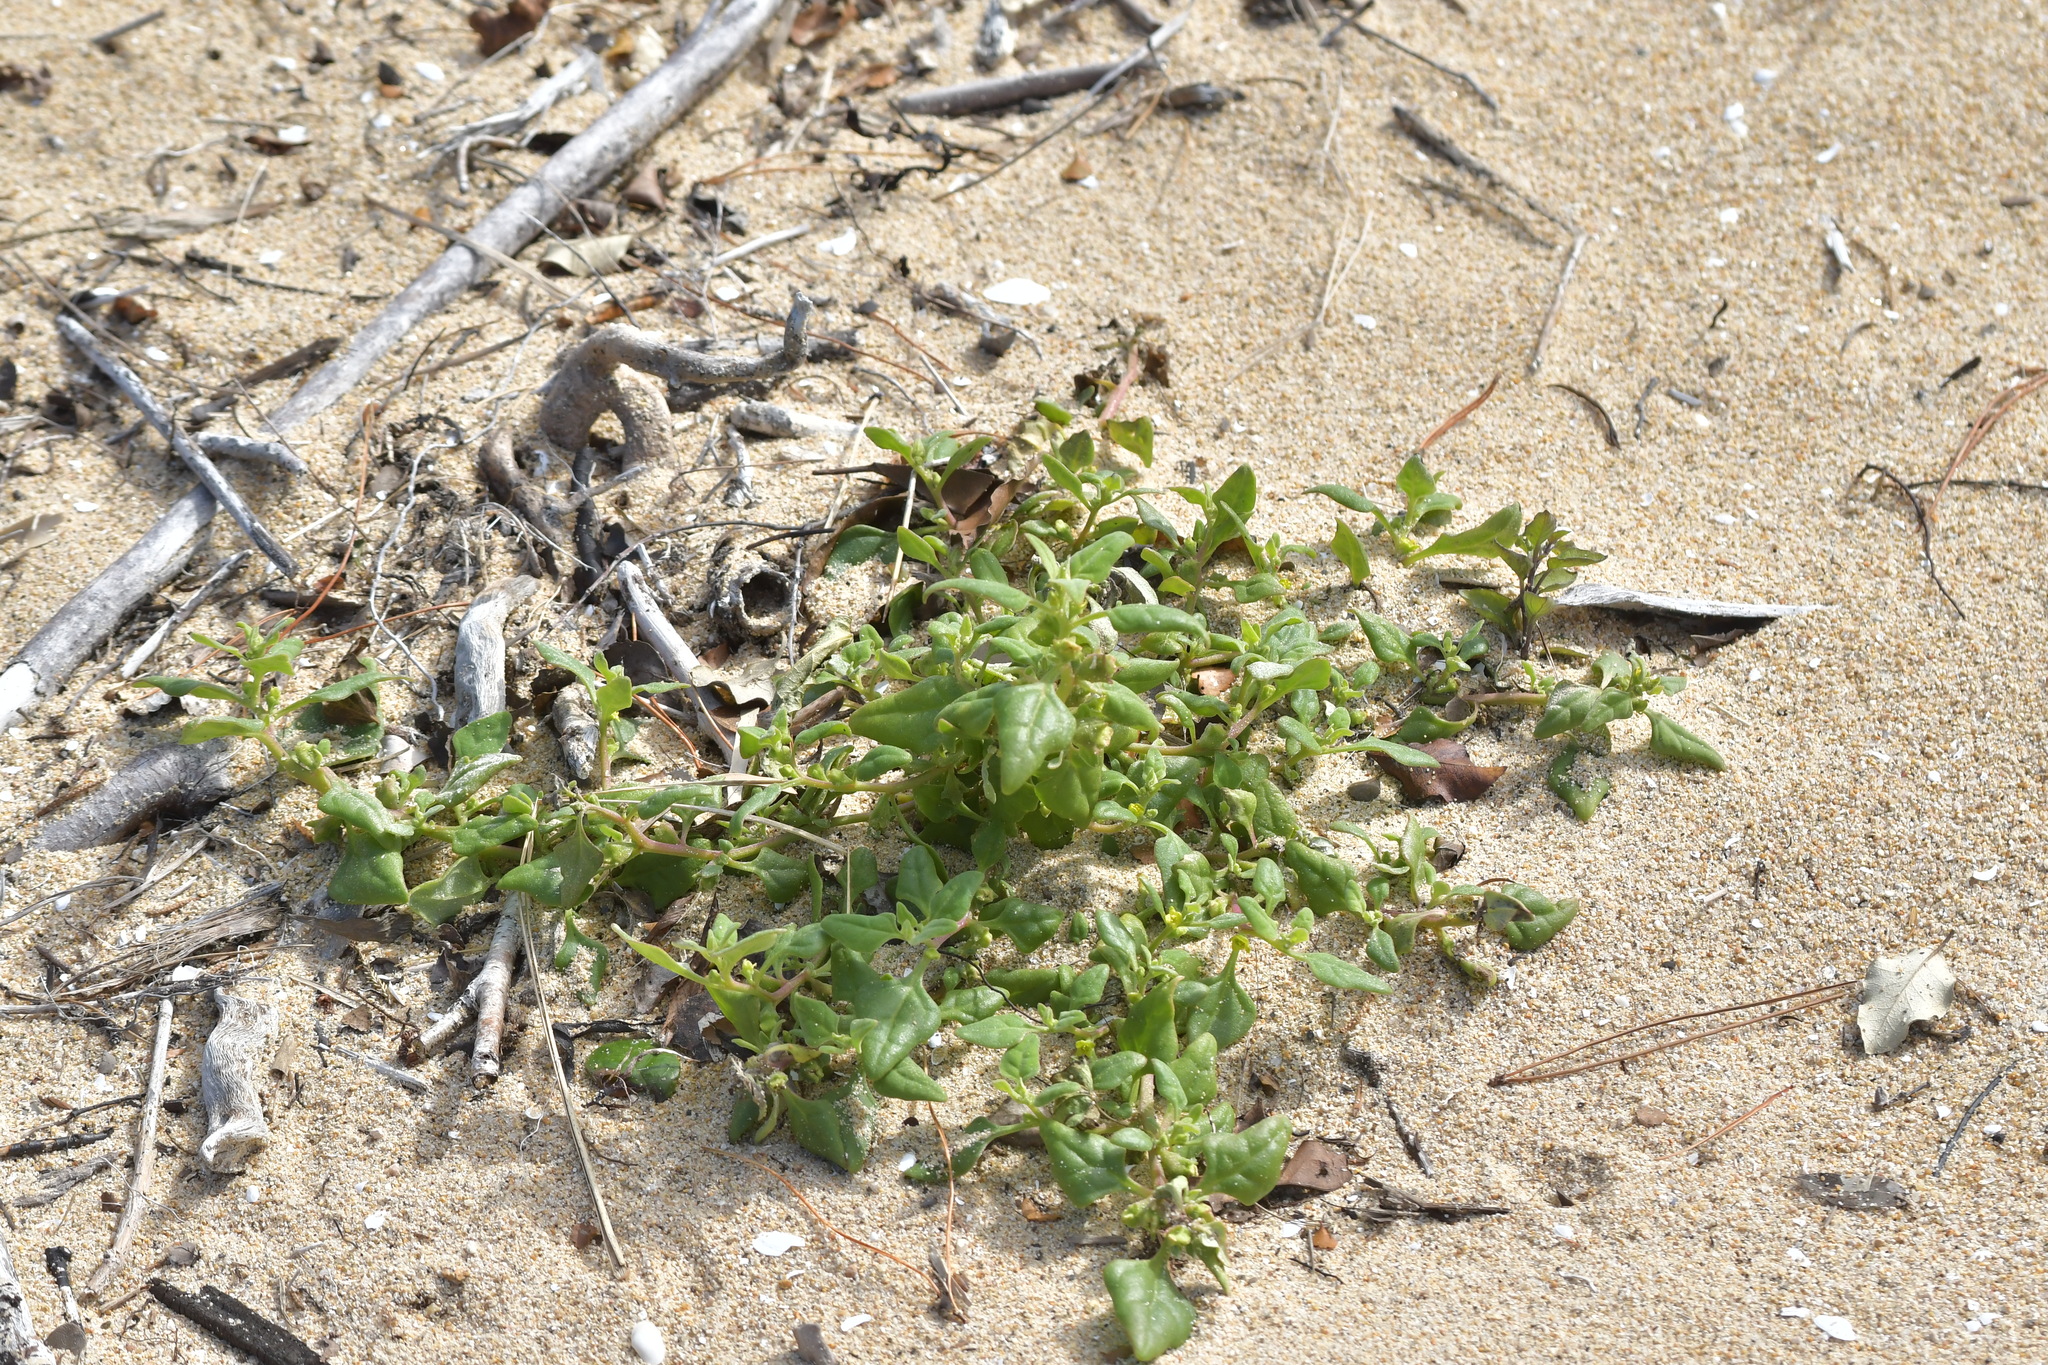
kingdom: Plantae
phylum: Tracheophyta
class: Magnoliopsida
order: Caryophyllales
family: Aizoaceae
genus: Tetragonia
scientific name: Tetragonia tetragonoides
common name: New zealand-spinach
